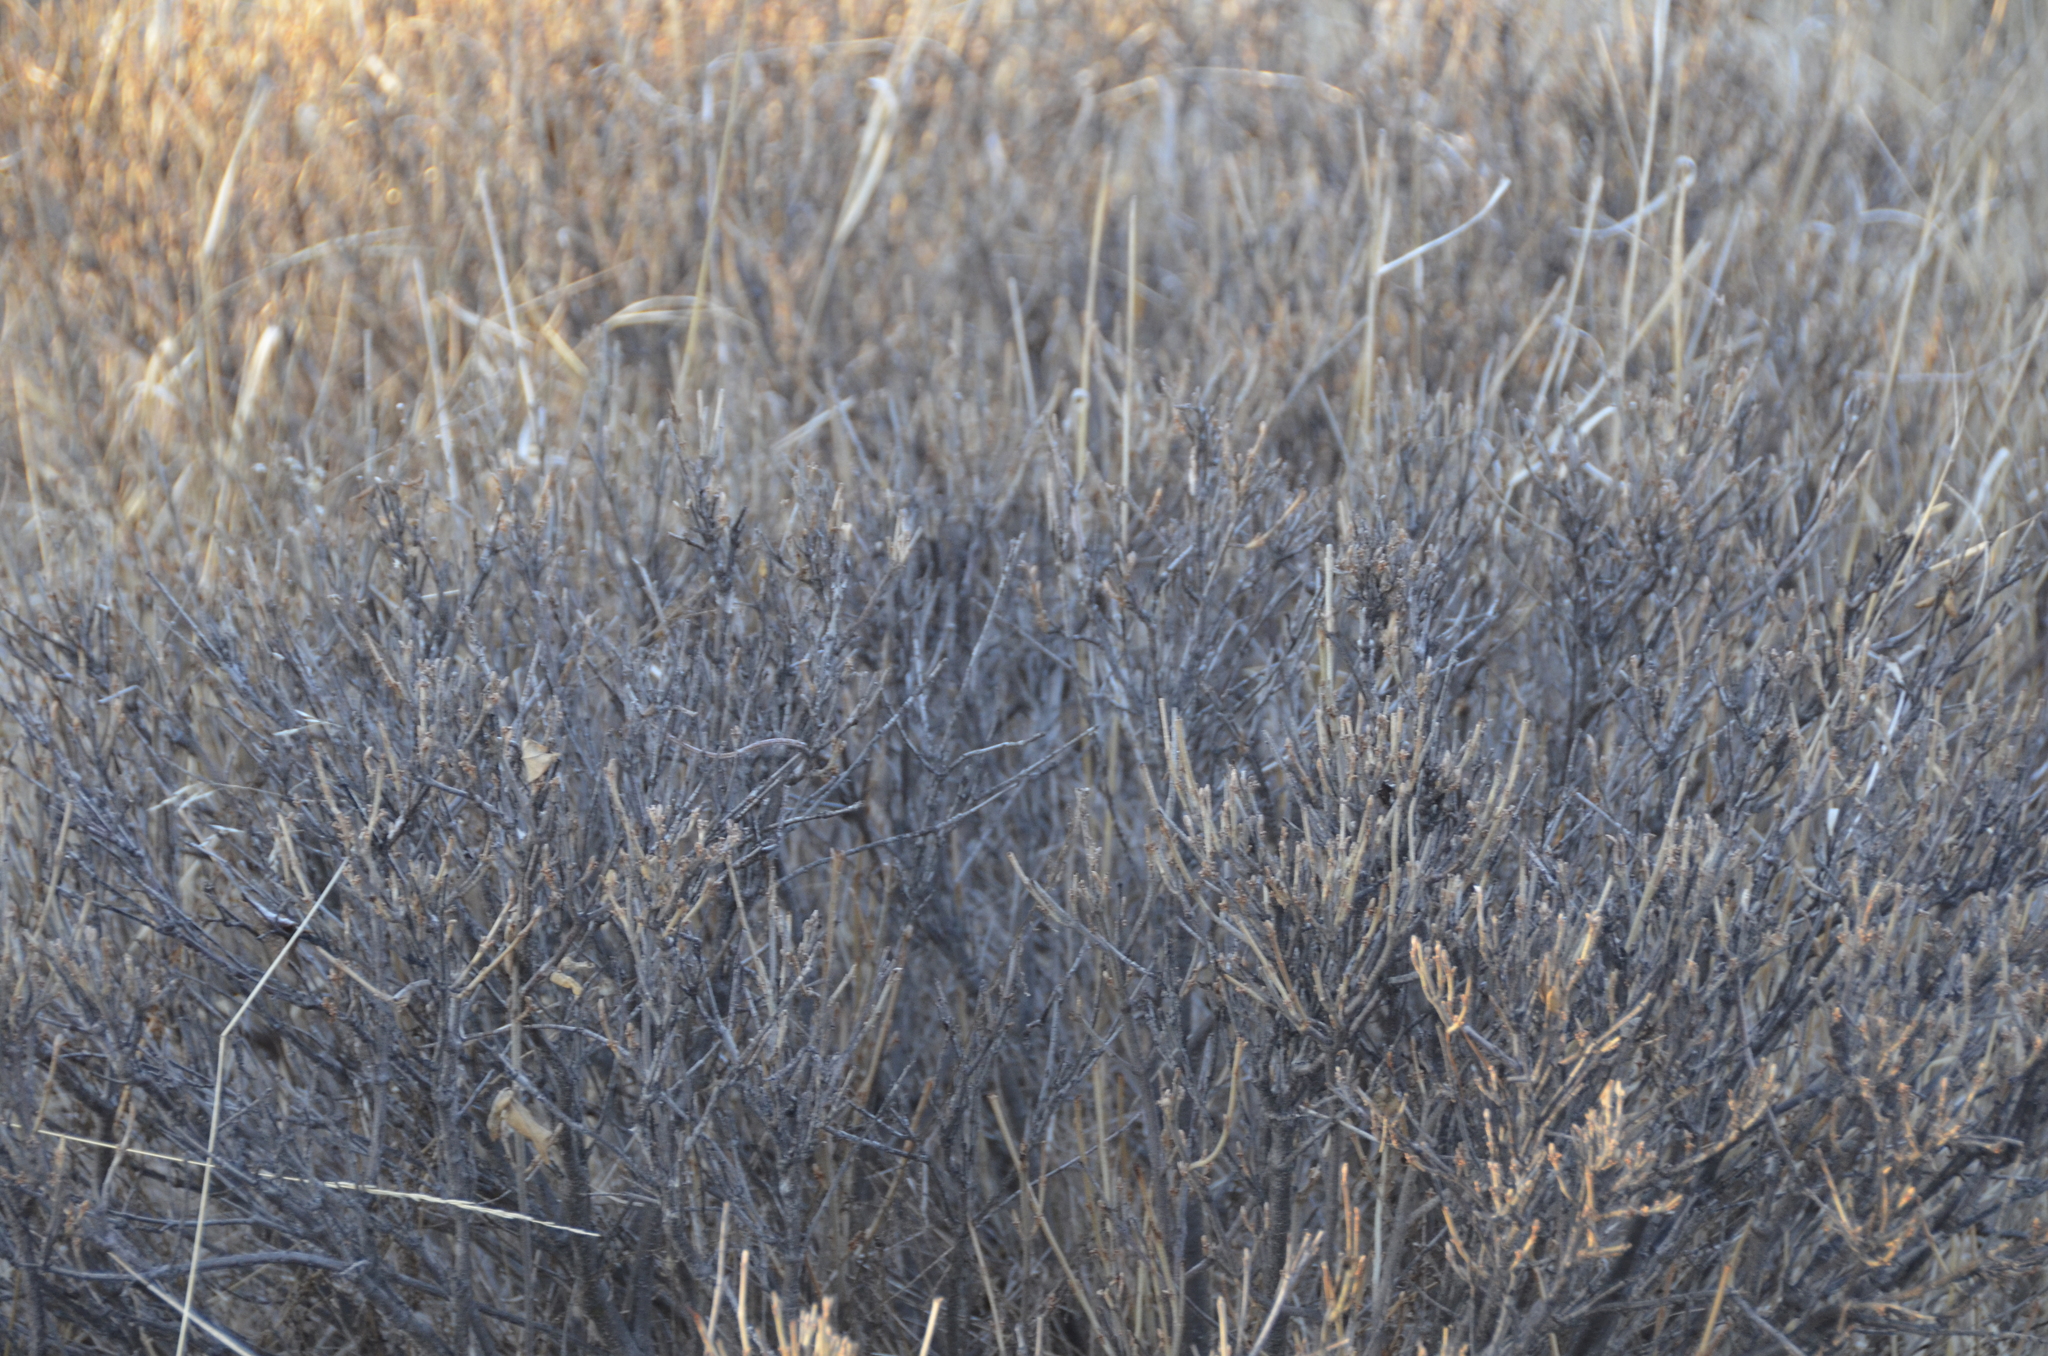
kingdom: Plantae
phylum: Tracheophyta
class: Magnoliopsida
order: Rosales
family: Elaeagnaceae
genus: Shepherdia
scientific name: Shepherdia canadensis
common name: Soapberry
